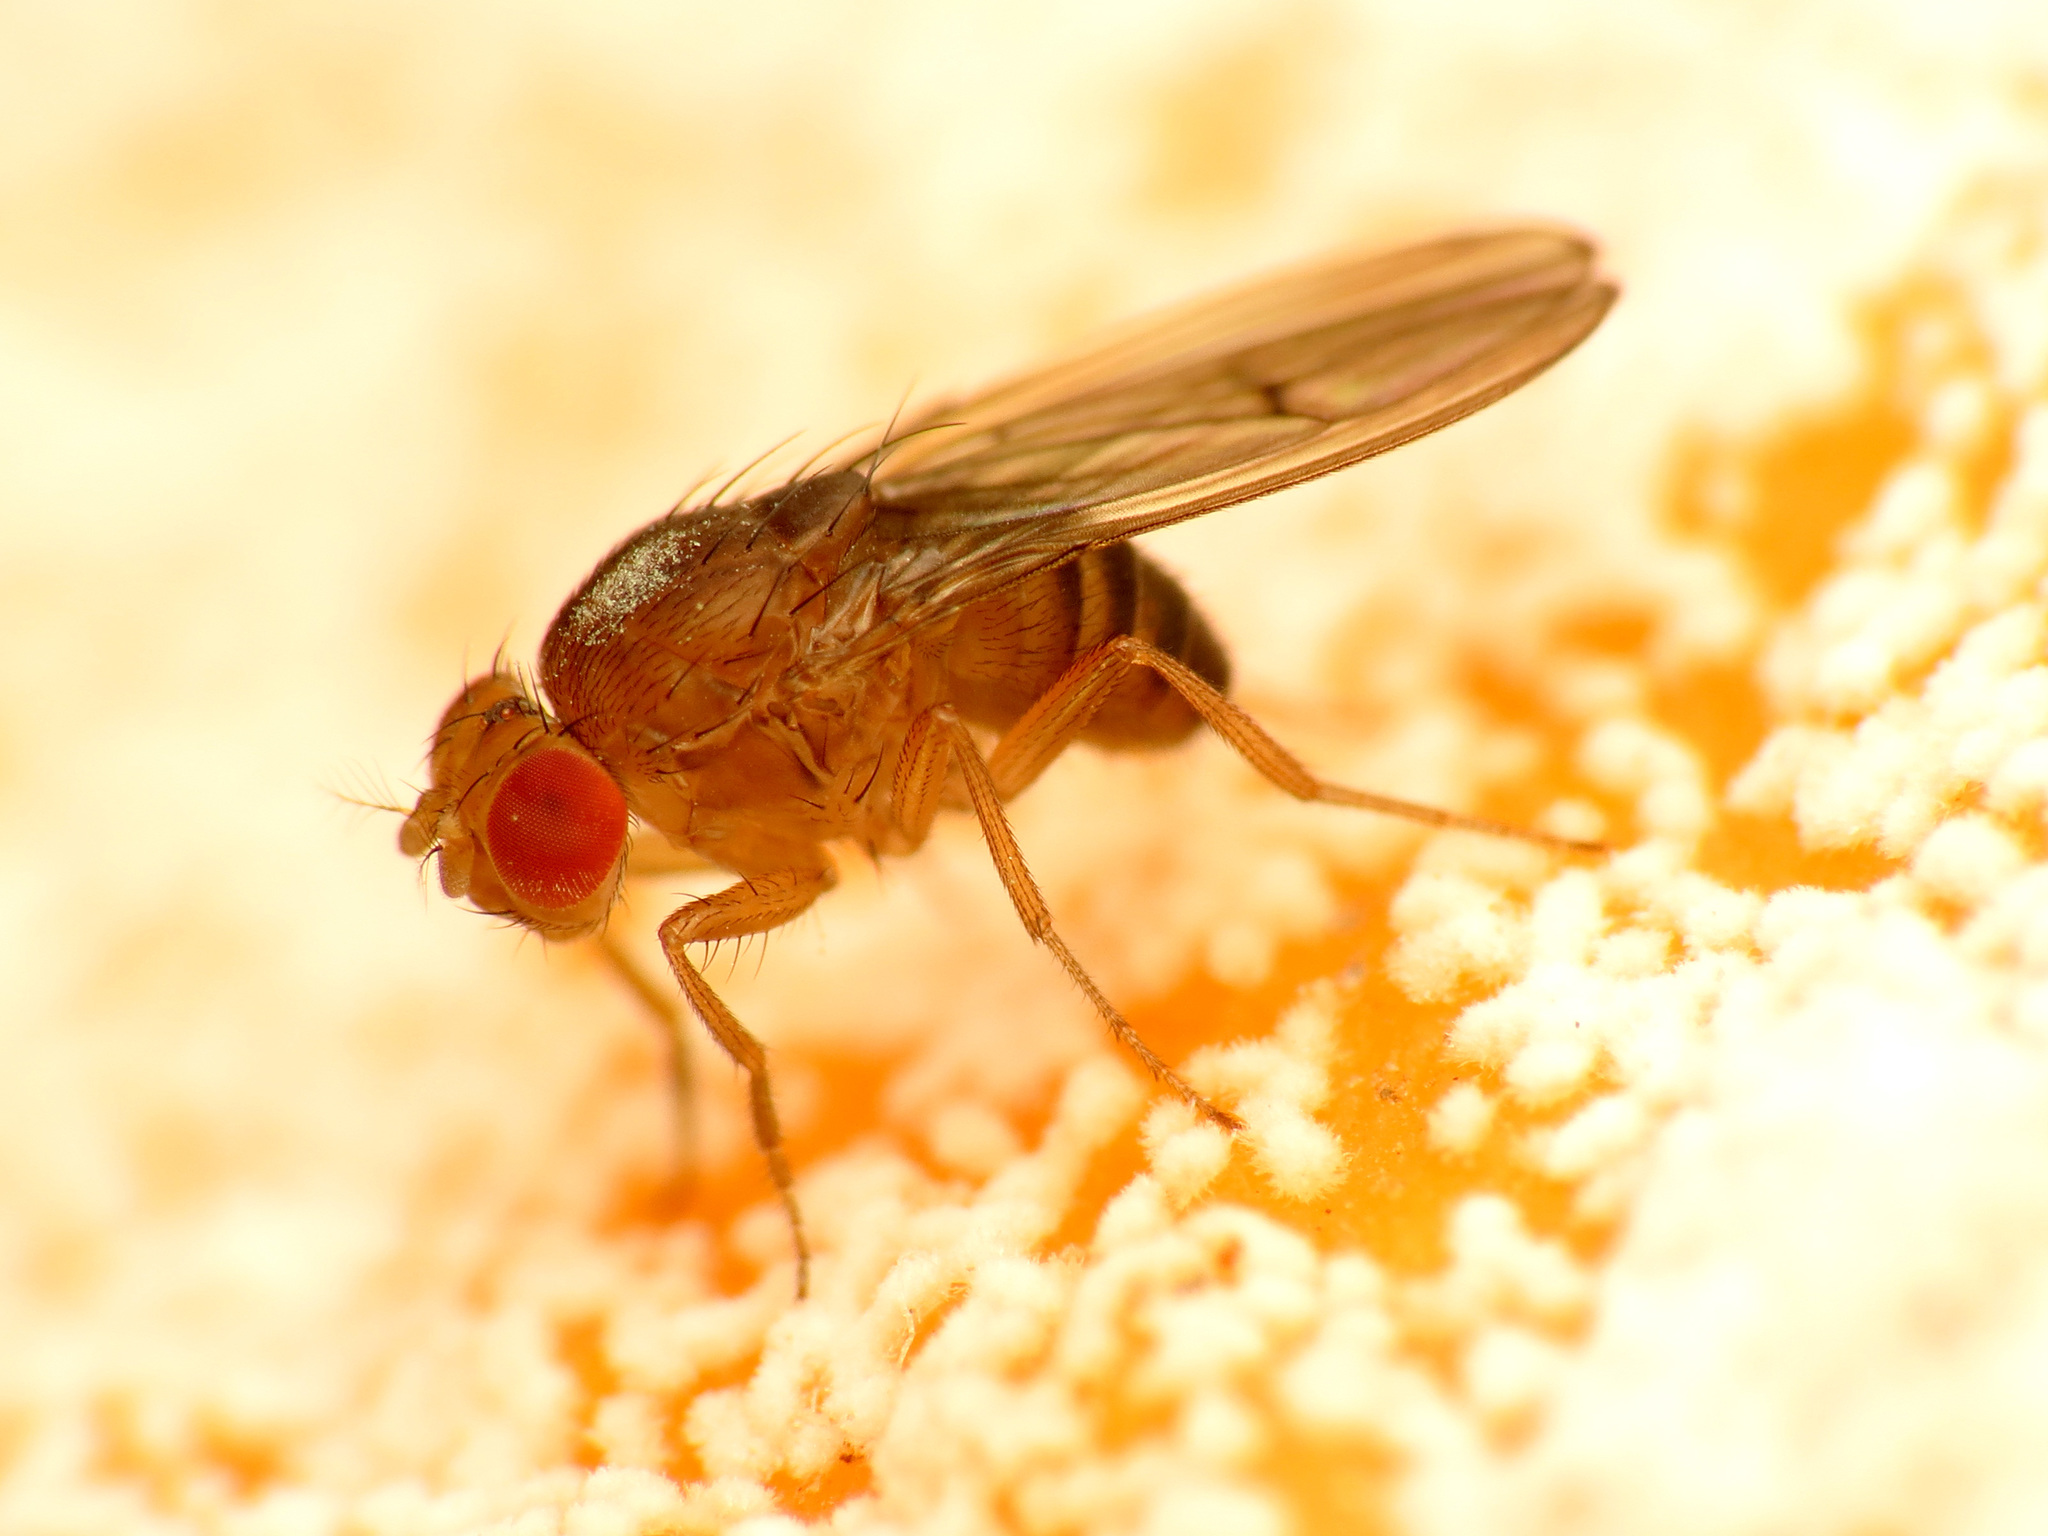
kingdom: Animalia
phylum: Arthropoda
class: Insecta
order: Diptera
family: Drosophilidae
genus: Drosophila
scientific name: Drosophila immigrans
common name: Pomace fly
